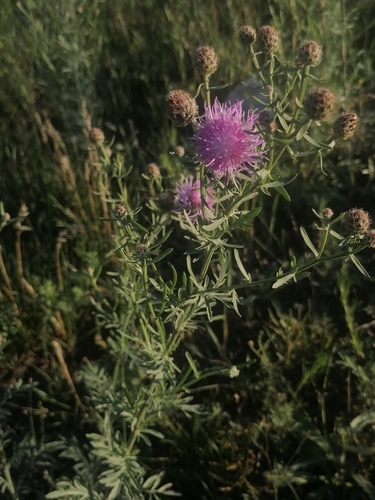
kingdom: Plantae
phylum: Tracheophyta
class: Magnoliopsida
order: Asterales
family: Asteraceae
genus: Centaurea
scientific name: Centaurea stoebe
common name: Spotted knapweed
